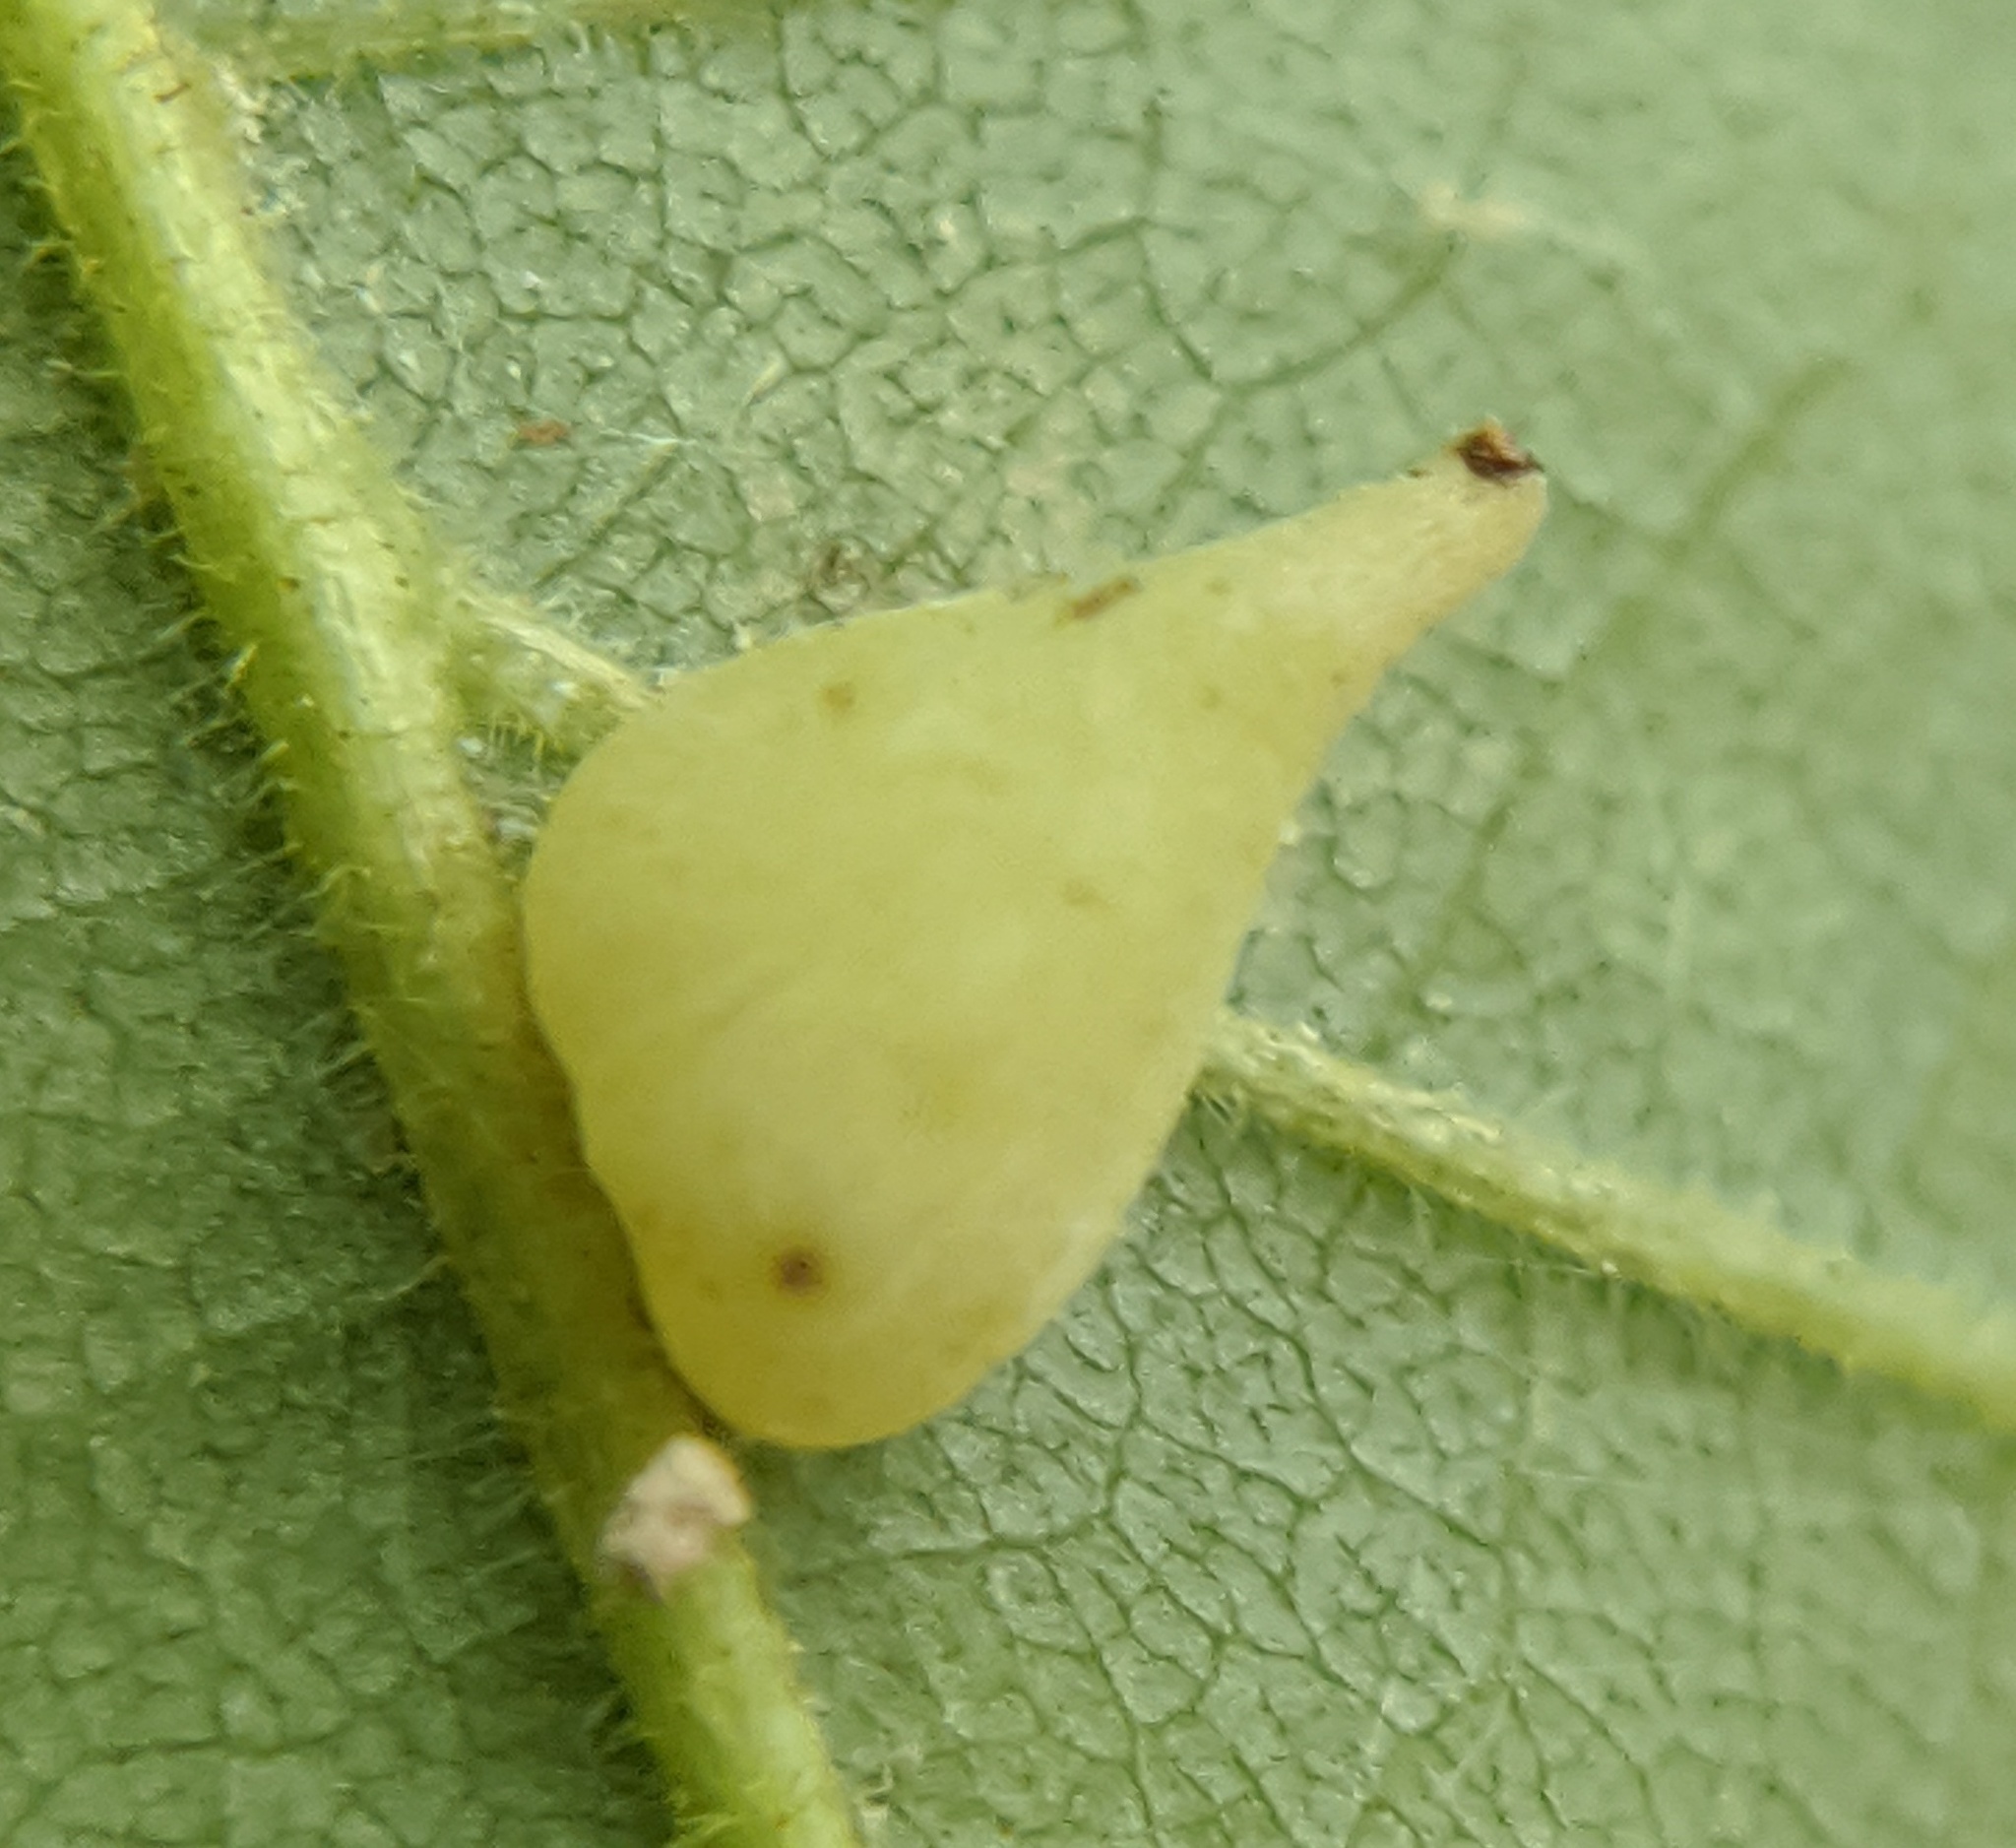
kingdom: Animalia
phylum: Arthropoda
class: Insecta
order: Diptera
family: Cecidomyiidae
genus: Caryomyia
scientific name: Caryomyia caryaecola
